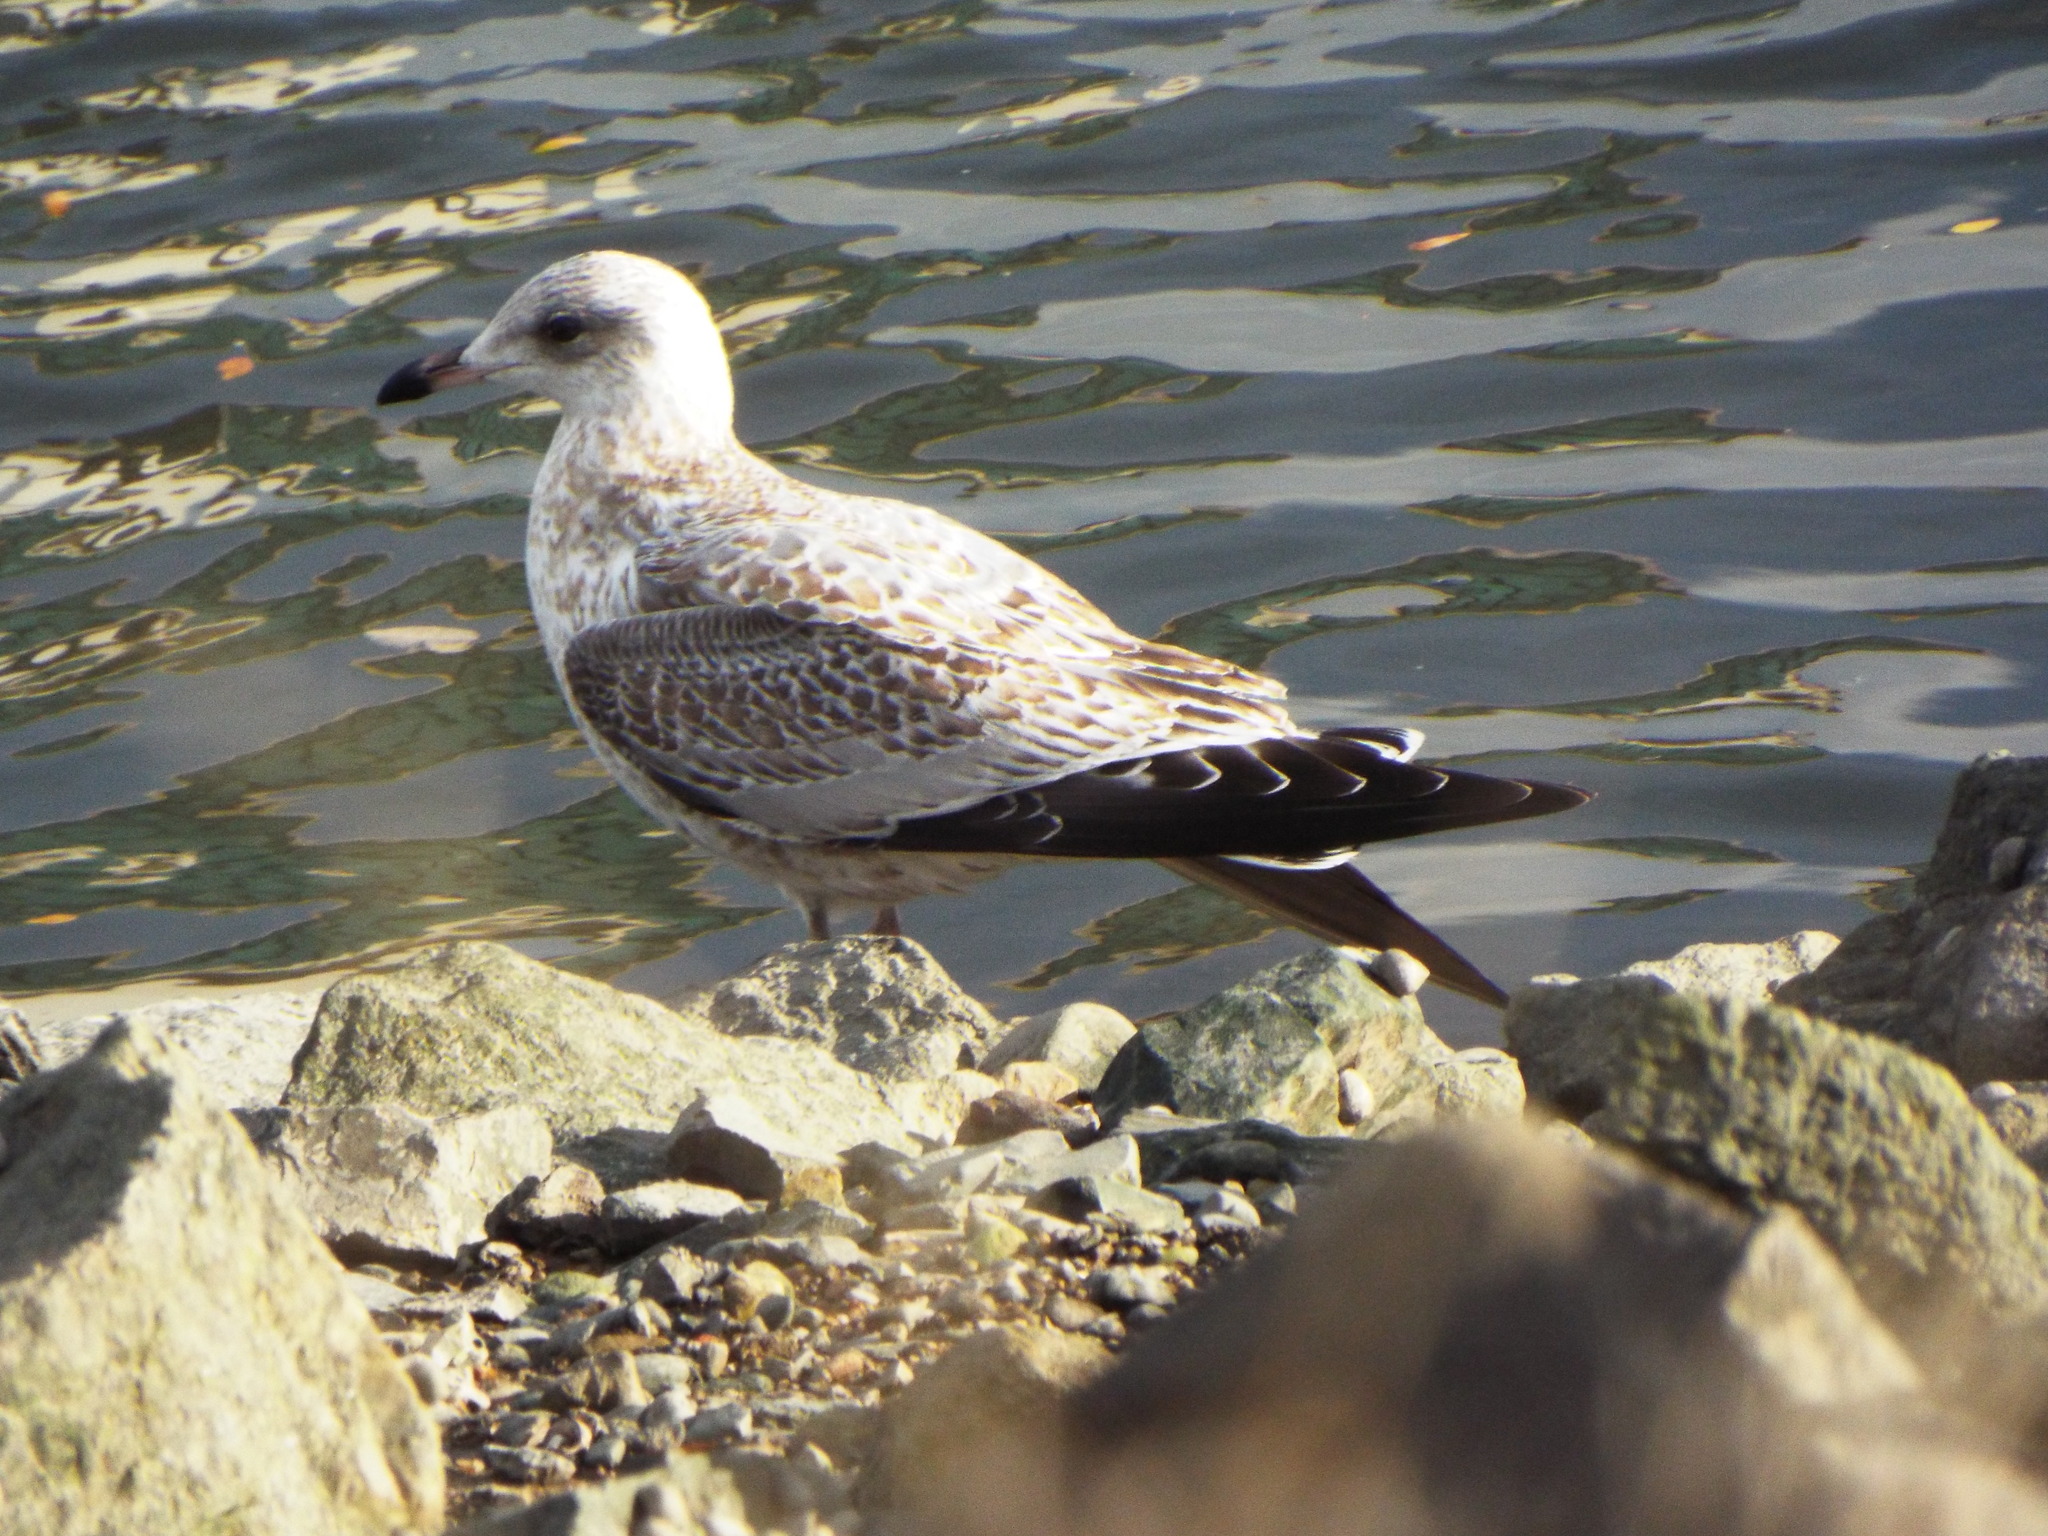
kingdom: Animalia
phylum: Chordata
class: Aves
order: Charadriiformes
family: Laridae
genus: Larus
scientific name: Larus delawarensis
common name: Ring-billed gull
